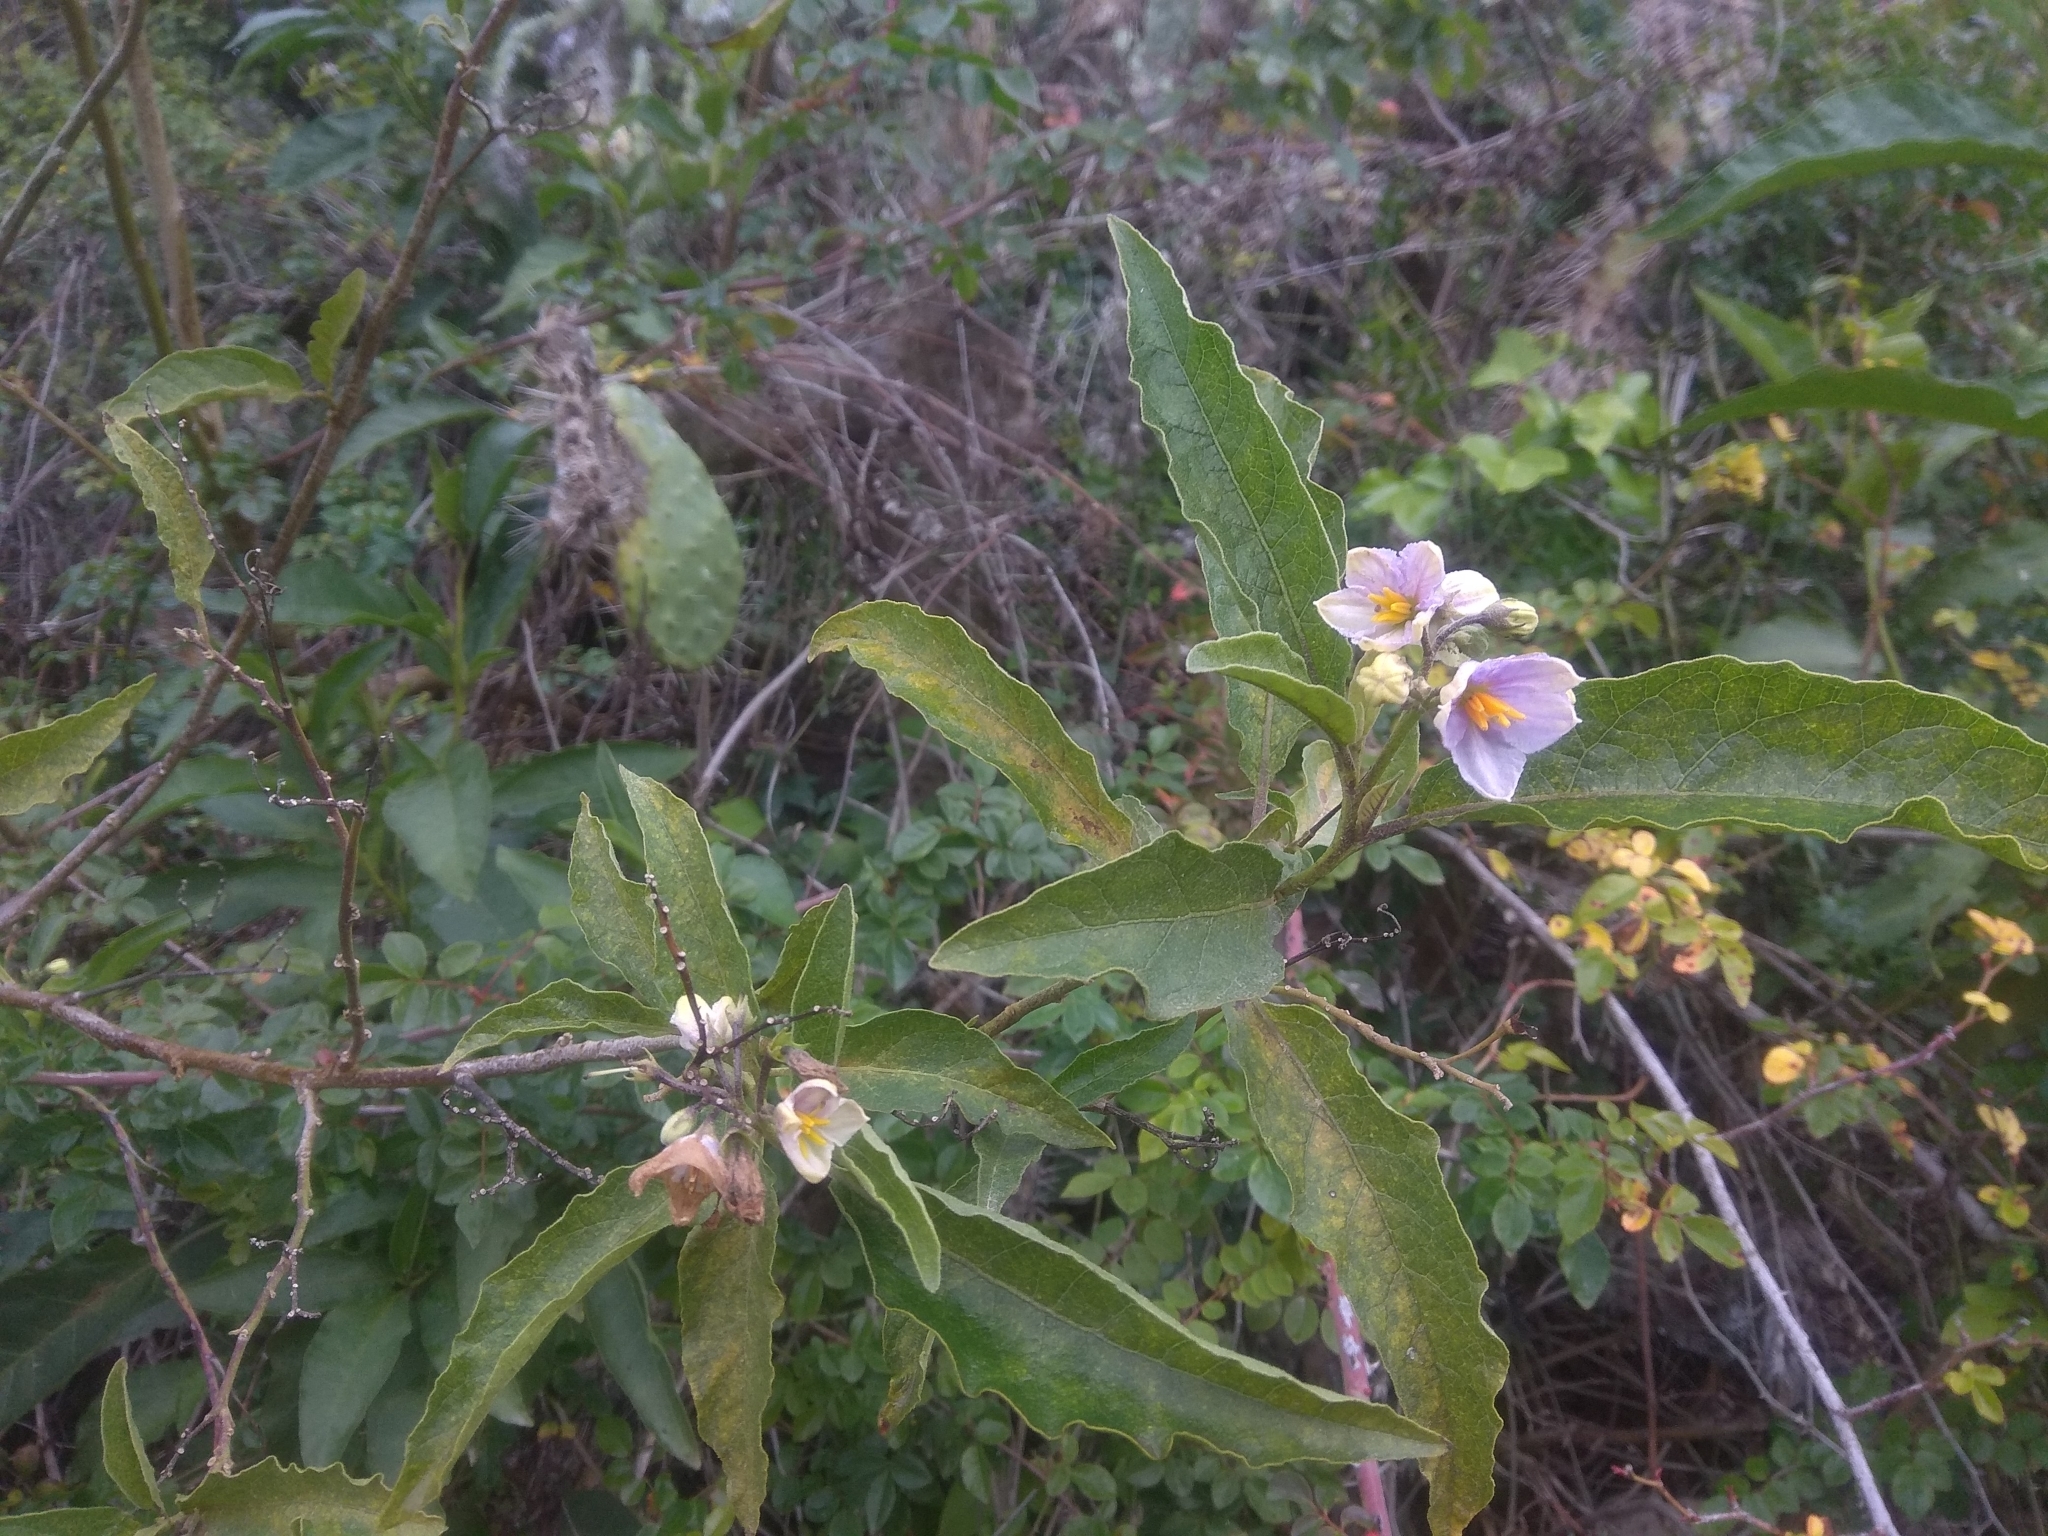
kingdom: Plantae
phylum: Tracheophyta
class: Magnoliopsida
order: Solanales
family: Solanaceae
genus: Solanum
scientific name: Solanum bonariense
